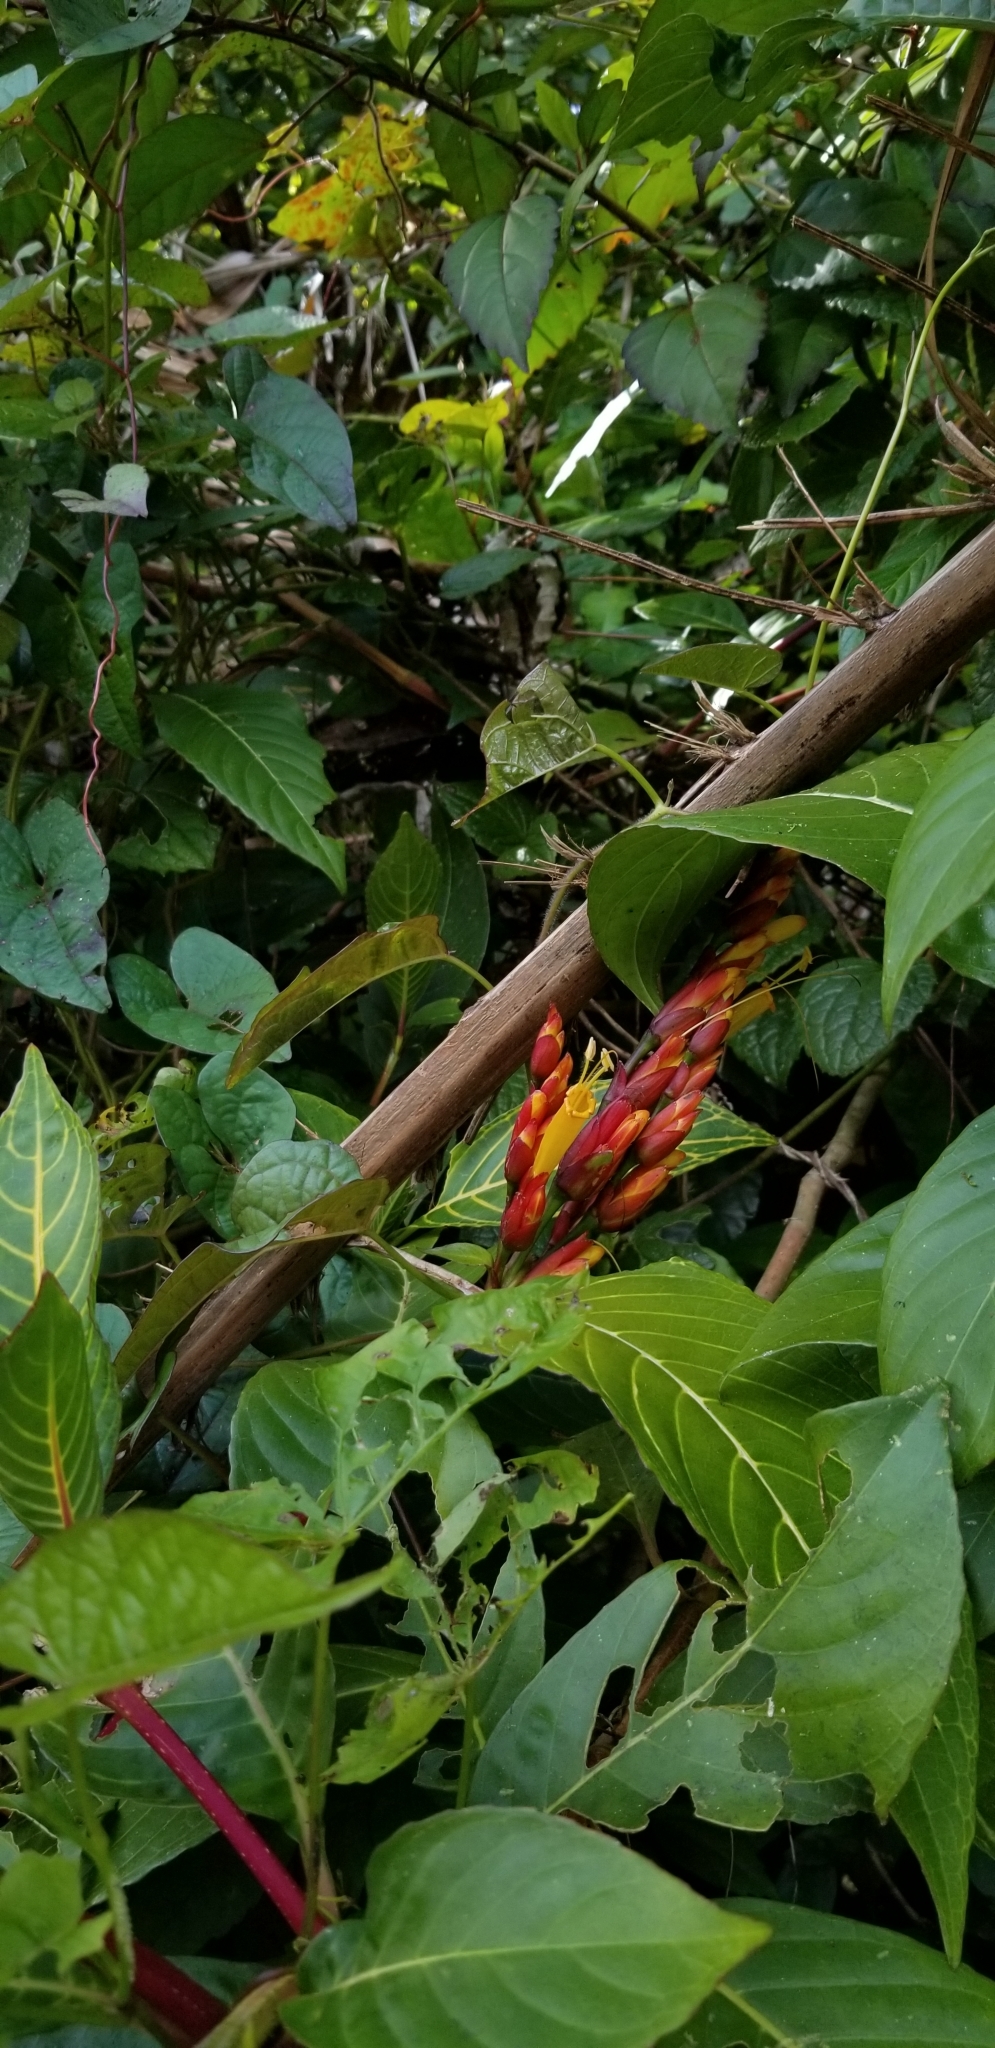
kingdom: Plantae
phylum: Tracheophyta
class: Magnoliopsida
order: Lamiales
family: Acanthaceae
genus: Sanchezia
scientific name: Sanchezia parvibracteata
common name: Sanchezia
